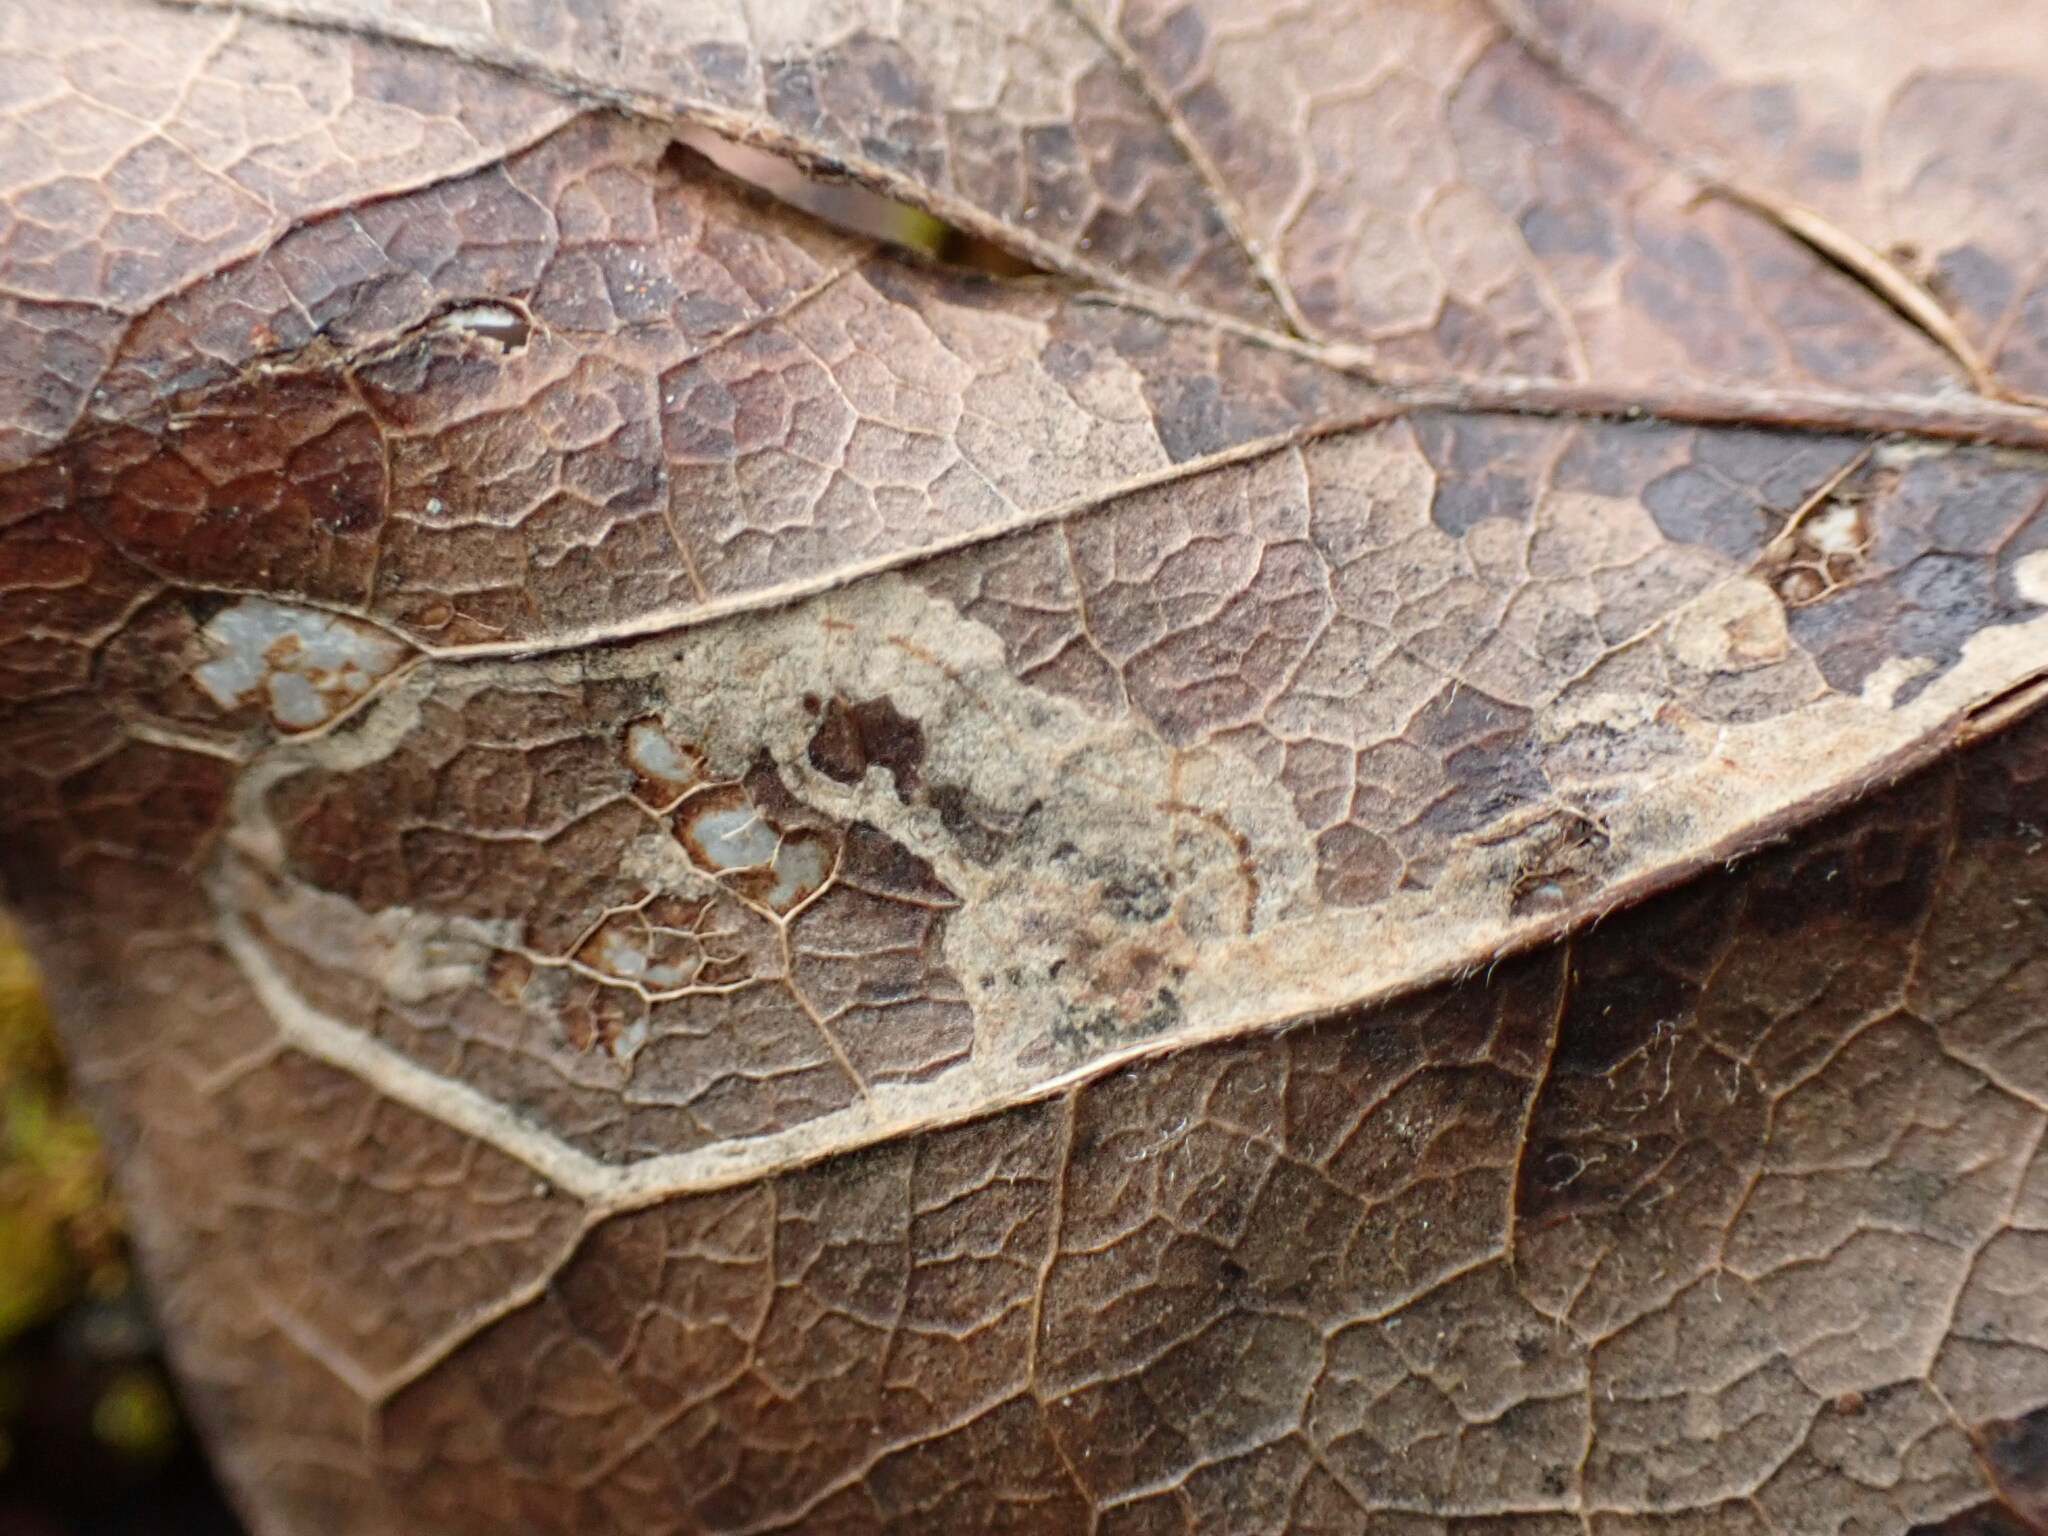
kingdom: Animalia
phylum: Arthropoda
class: Insecta
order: Lepidoptera
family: Gracillariidae
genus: Phyllocnistis
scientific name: Phyllocnistis liriodendronella
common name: Tulip tree leaf miner
